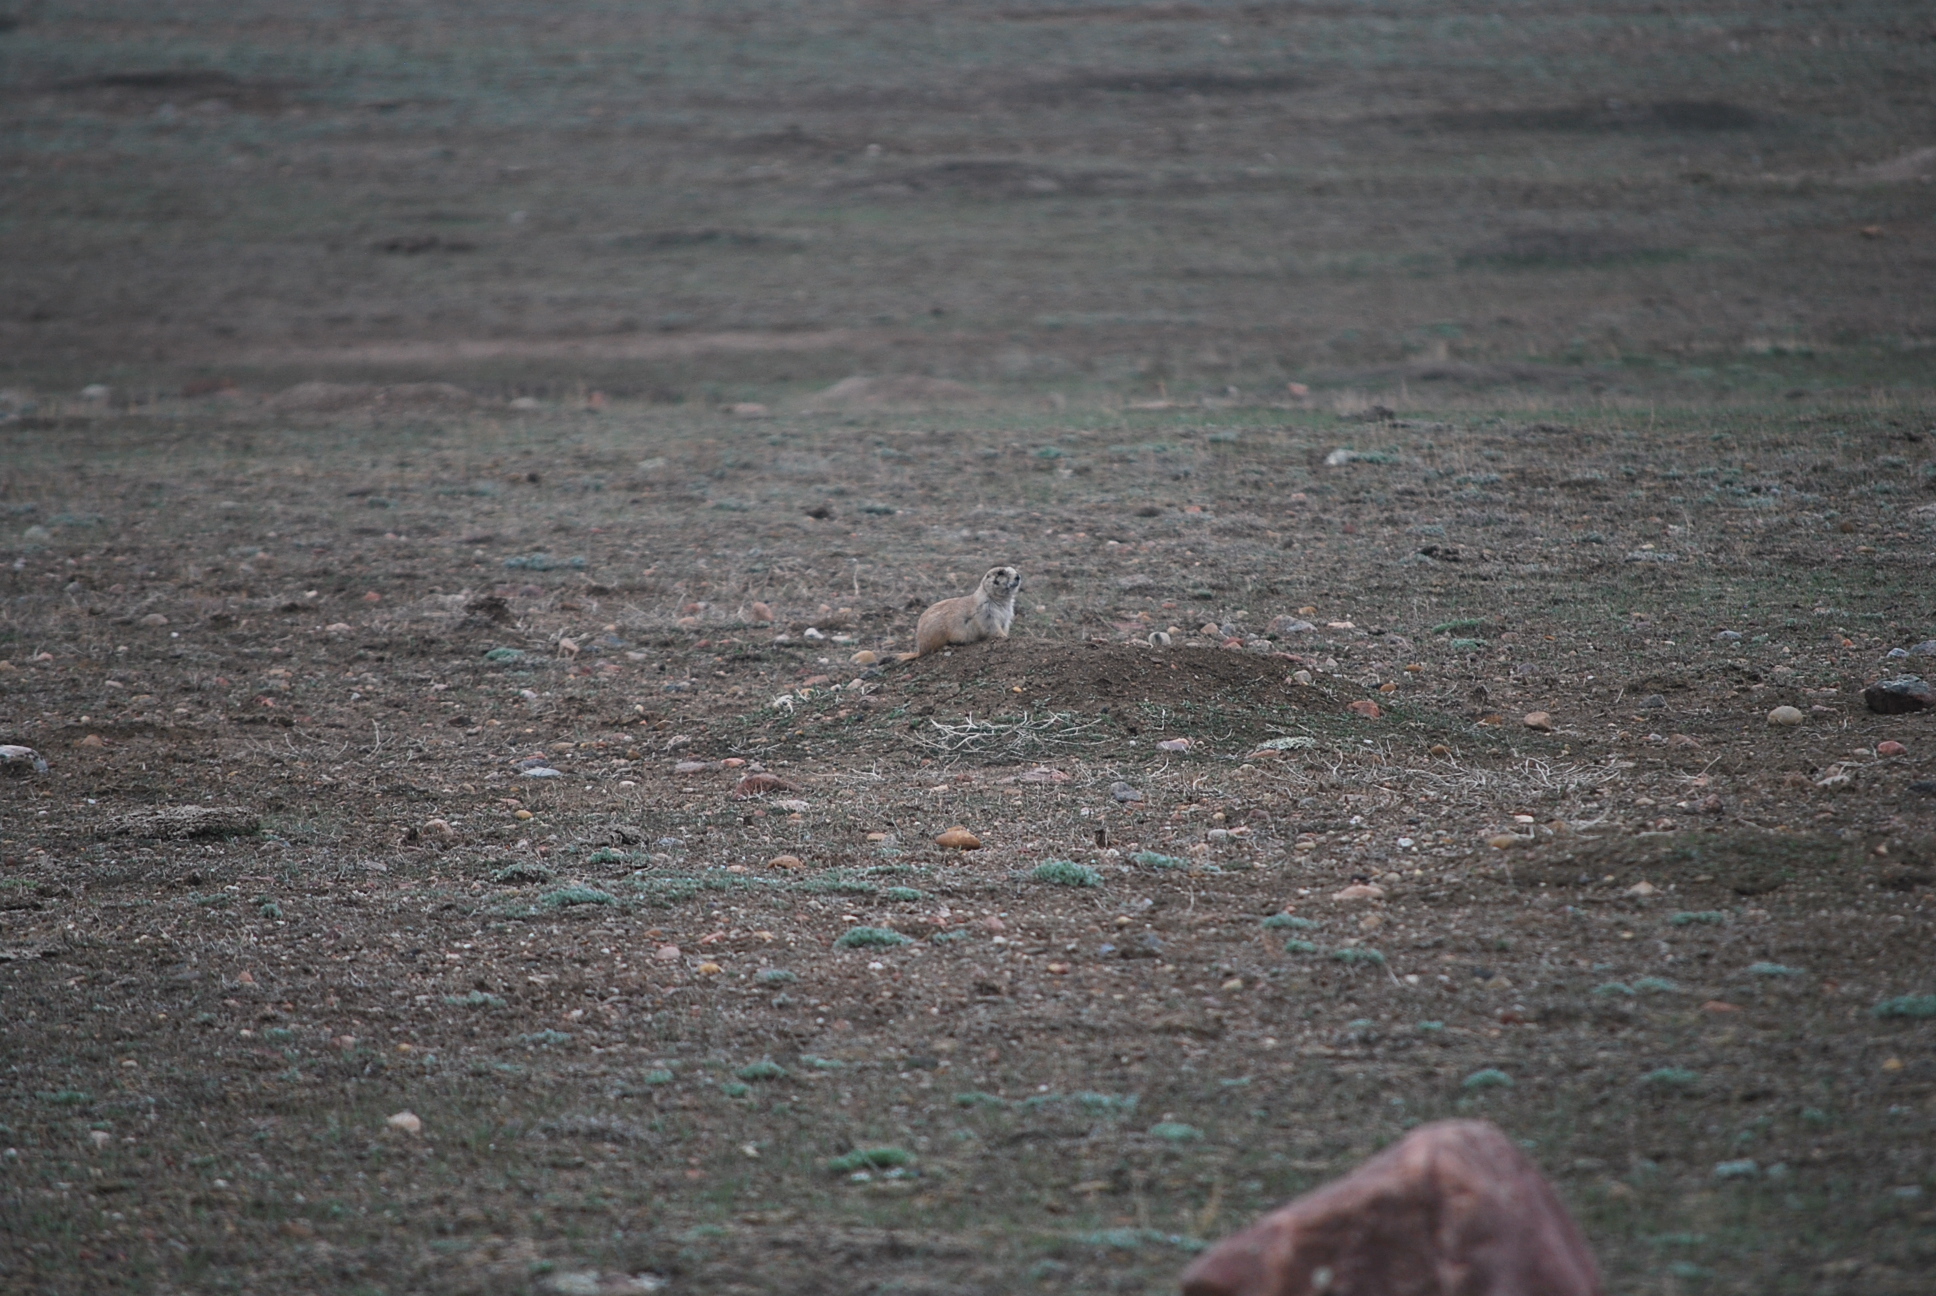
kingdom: Animalia
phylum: Chordata
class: Mammalia
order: Rodentia
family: Sciuridae
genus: Cynomys
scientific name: Cynomys ludovicianus
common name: Black-tailed prairie dog
